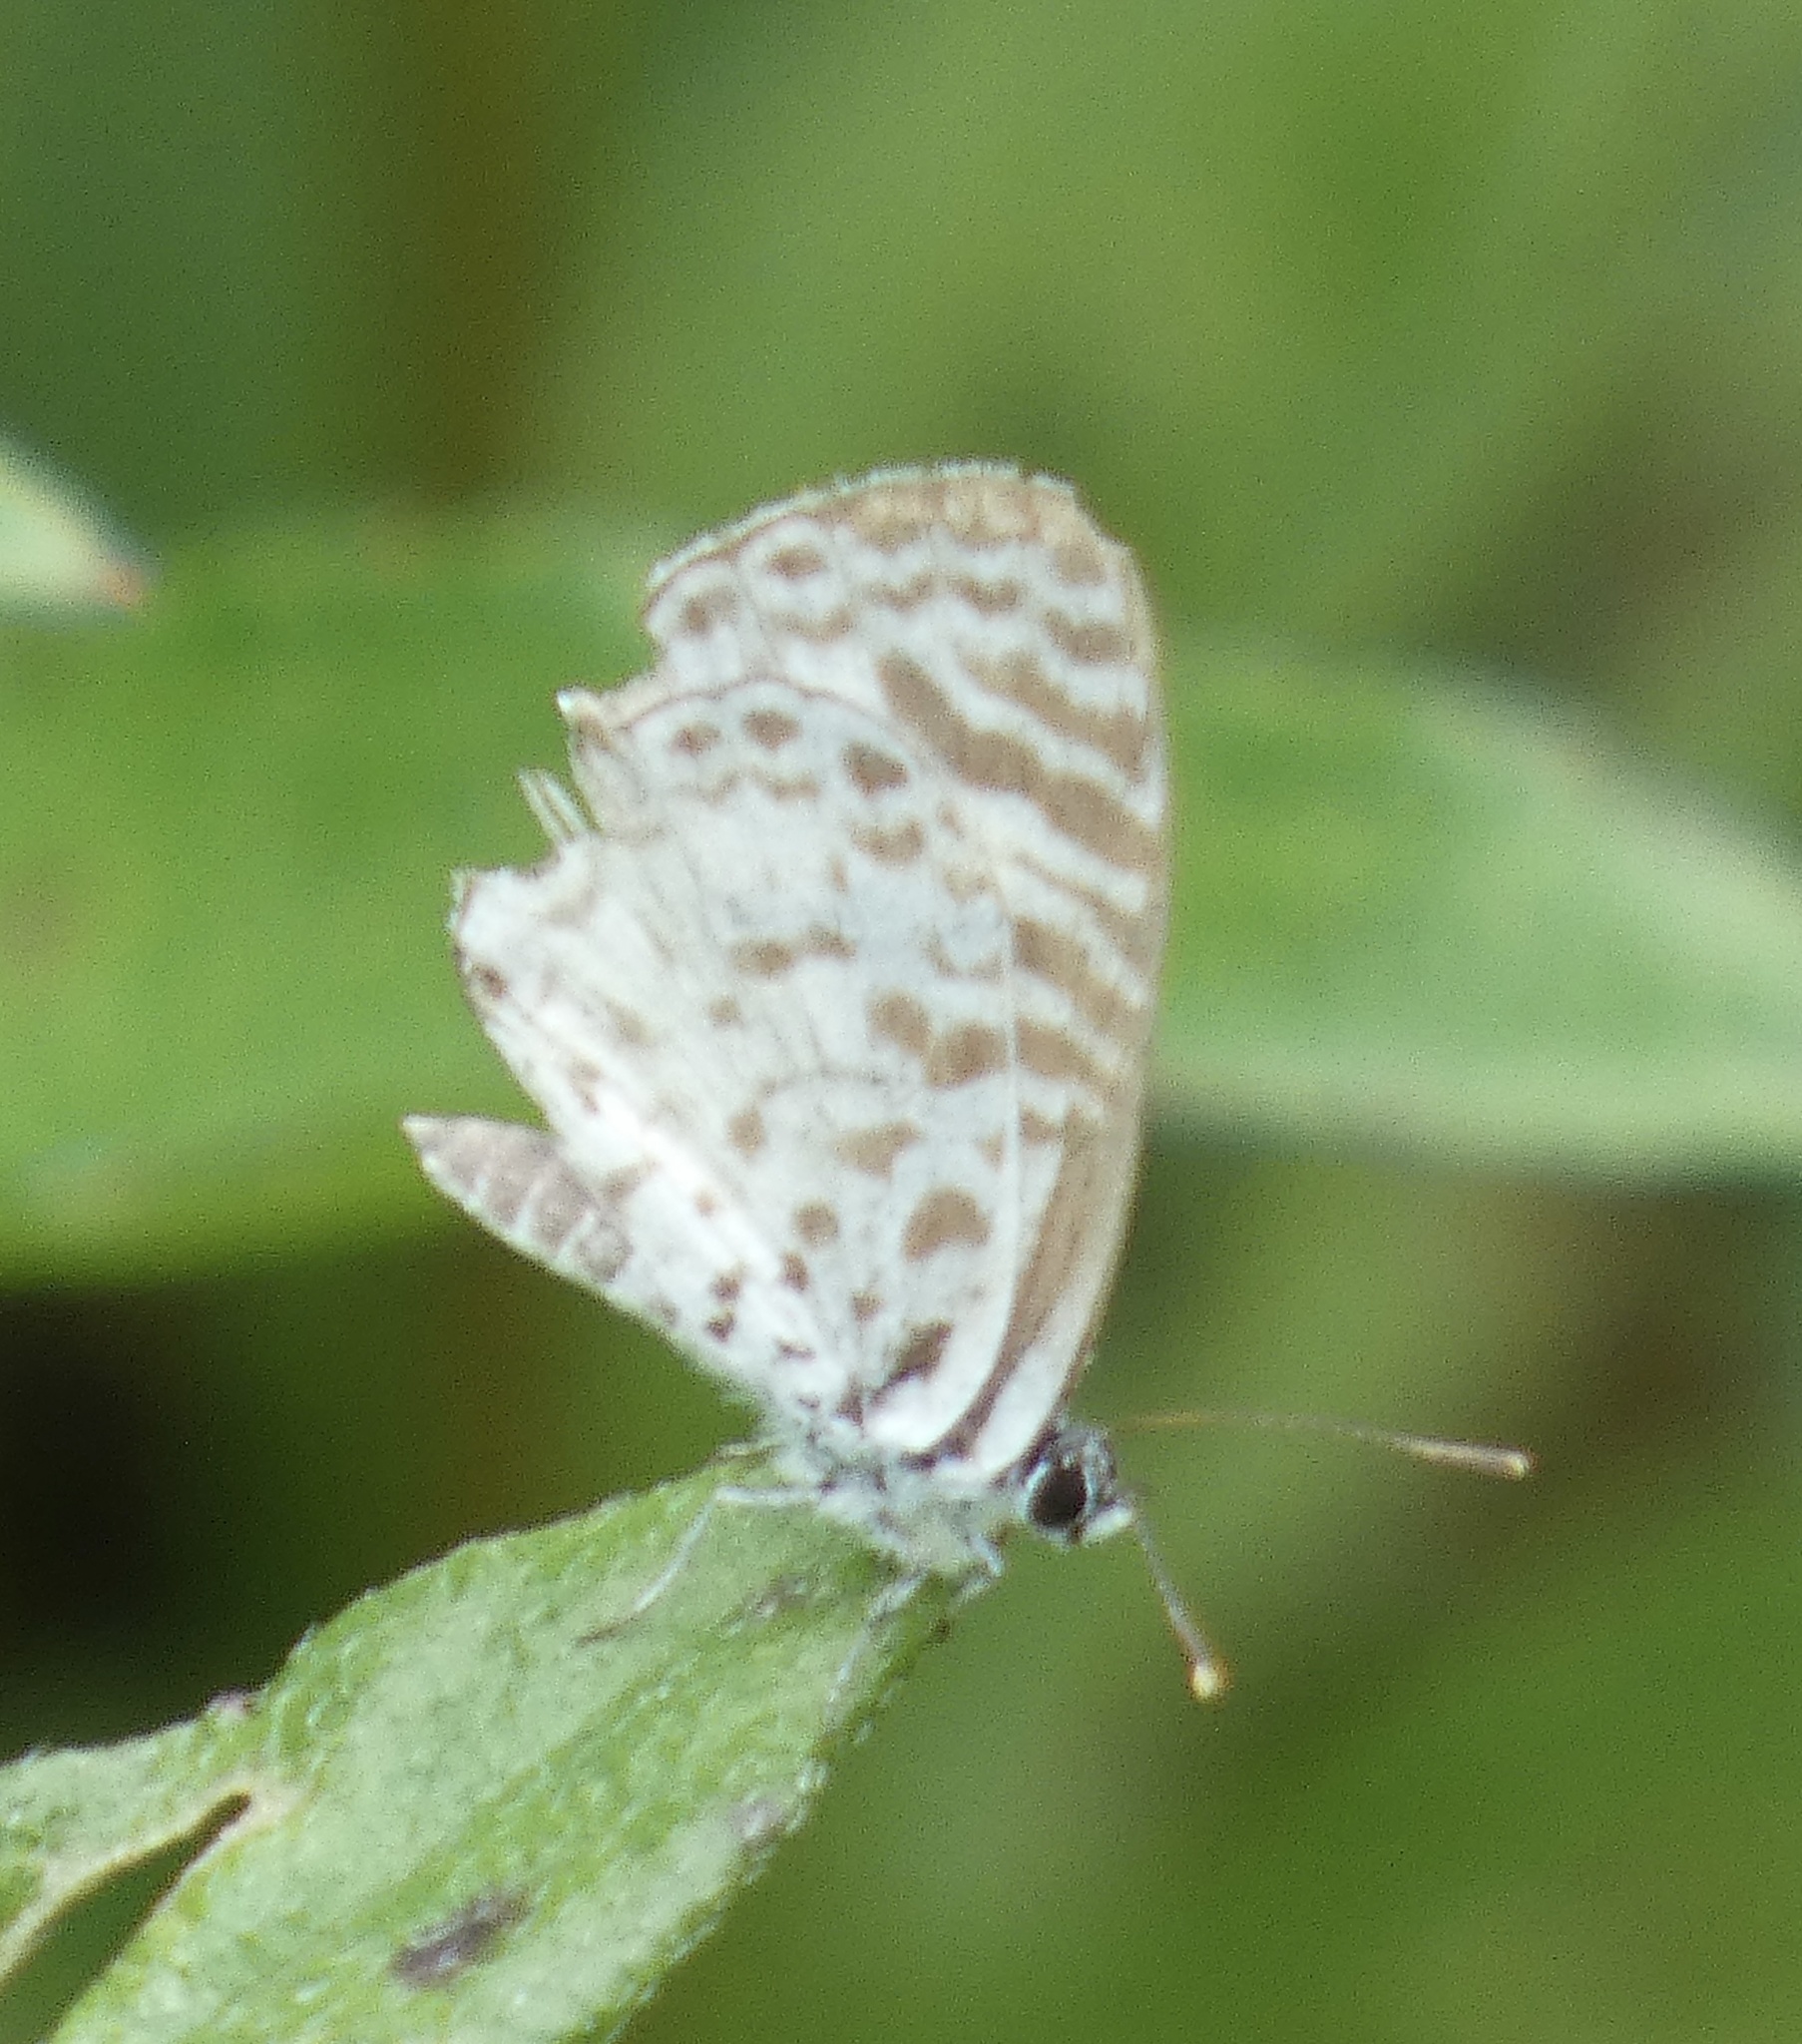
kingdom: Animalia
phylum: Arthropoda
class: Insecta
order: Lepidoptera
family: Lycaenidae
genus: Leptotes
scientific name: Leptotes cassius
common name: Cassius blue
